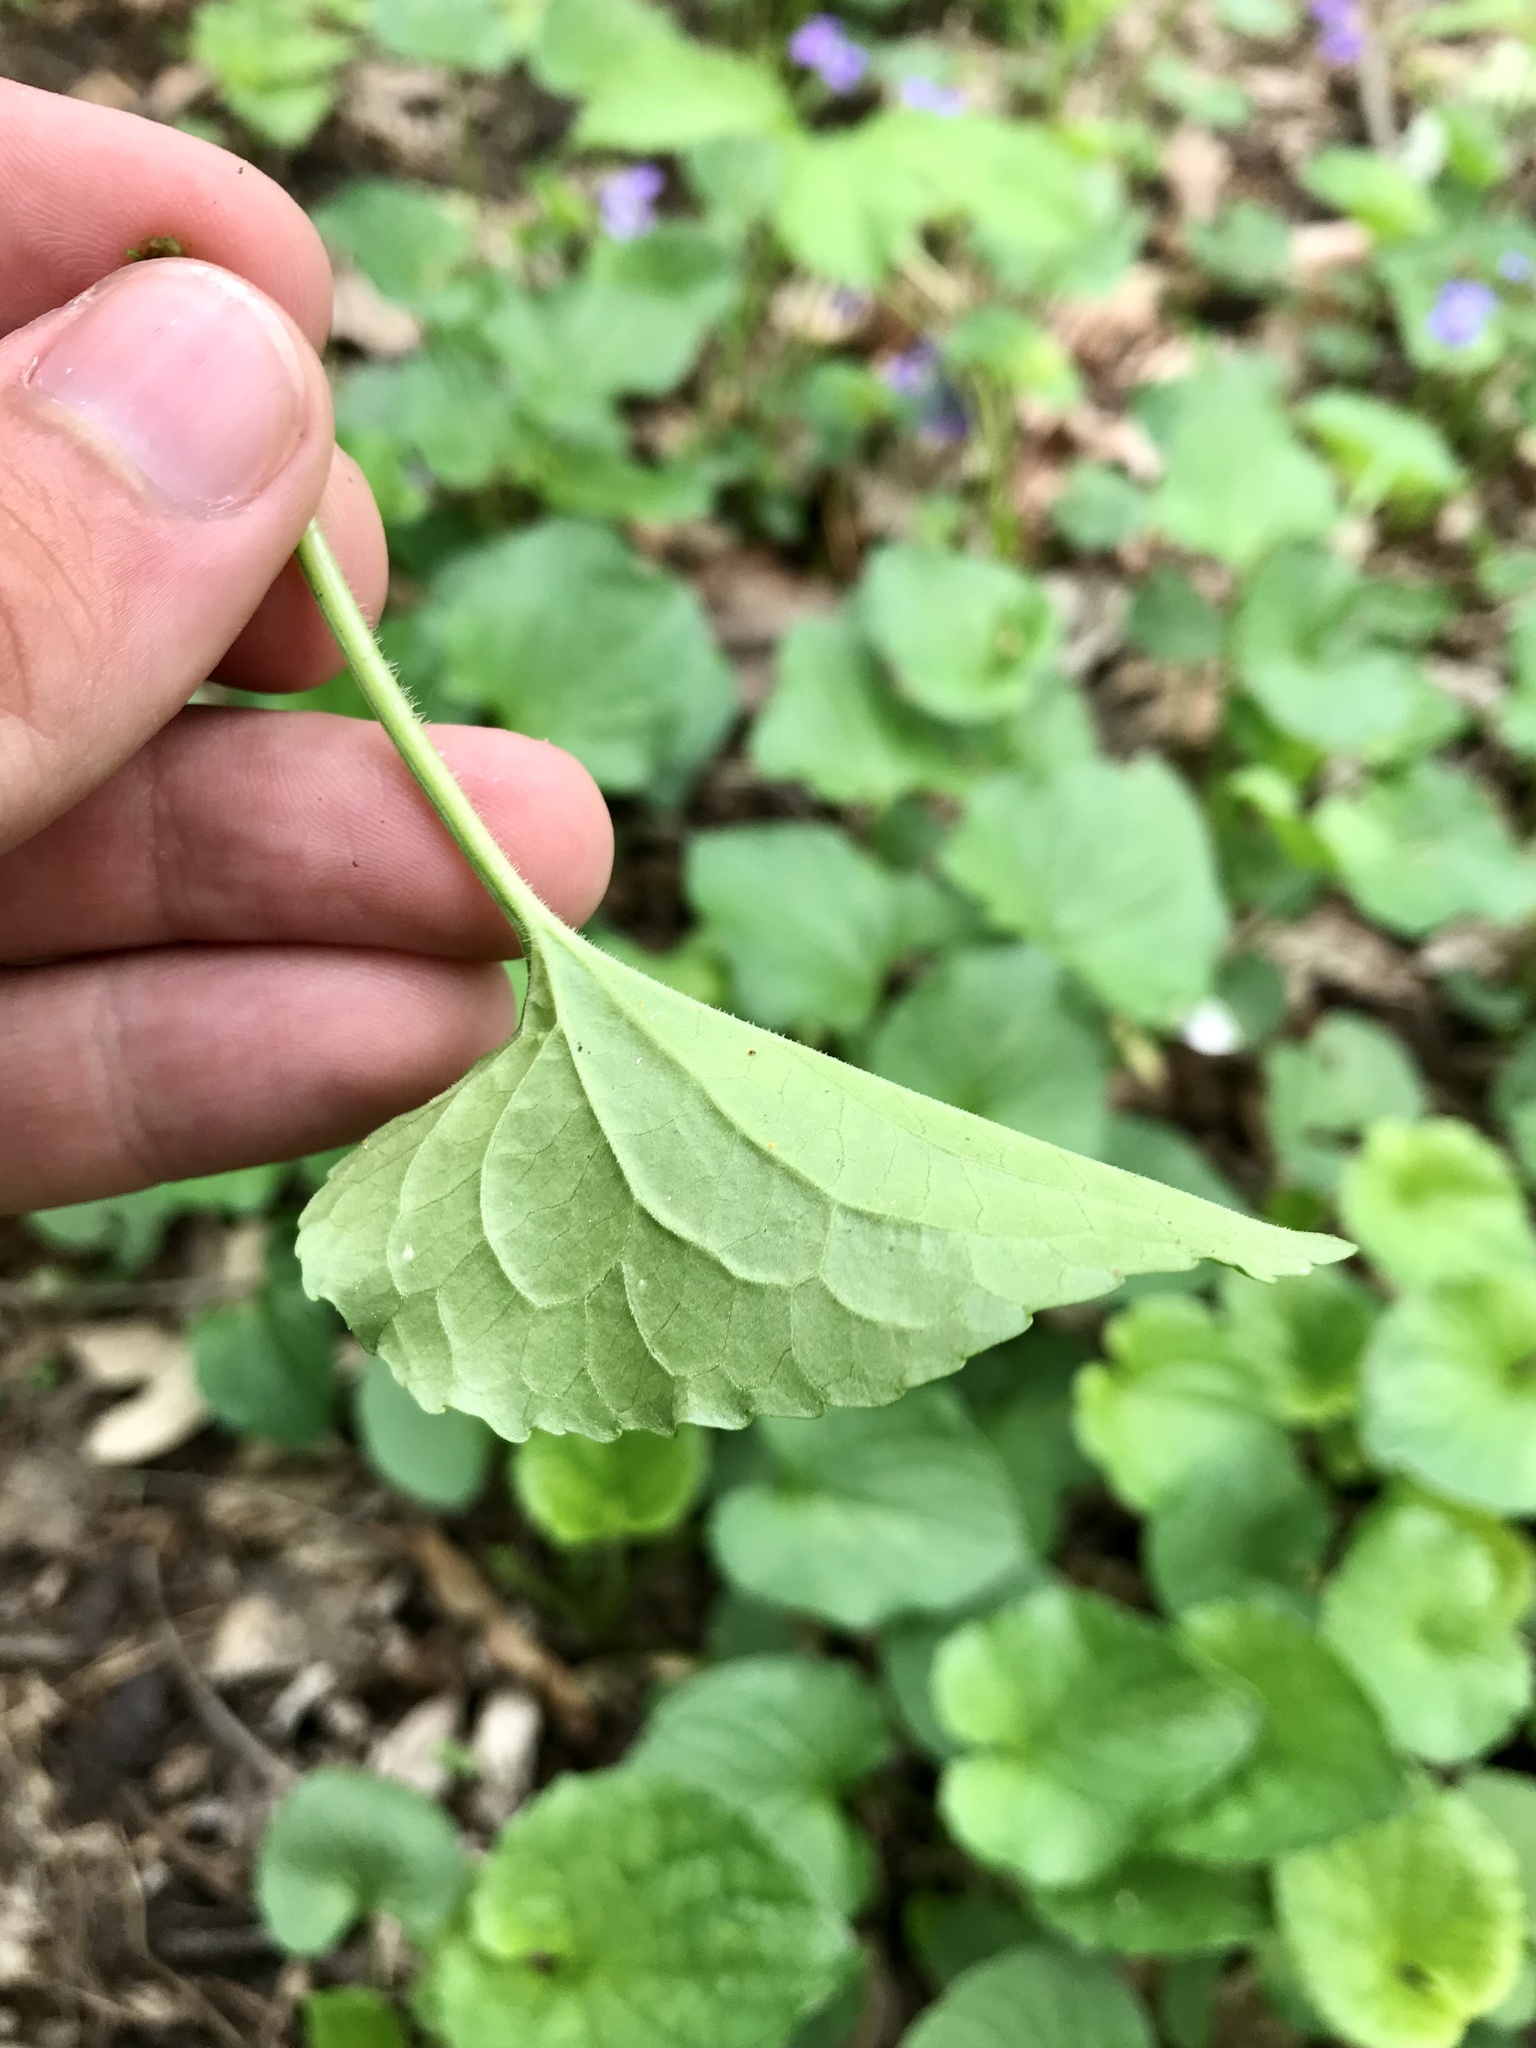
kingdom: Plantae
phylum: Tracheophyta
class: Magnoliopsida
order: Malpighiales
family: Violaceae
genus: Viola
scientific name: Viola sororia
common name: Dooryard violet
